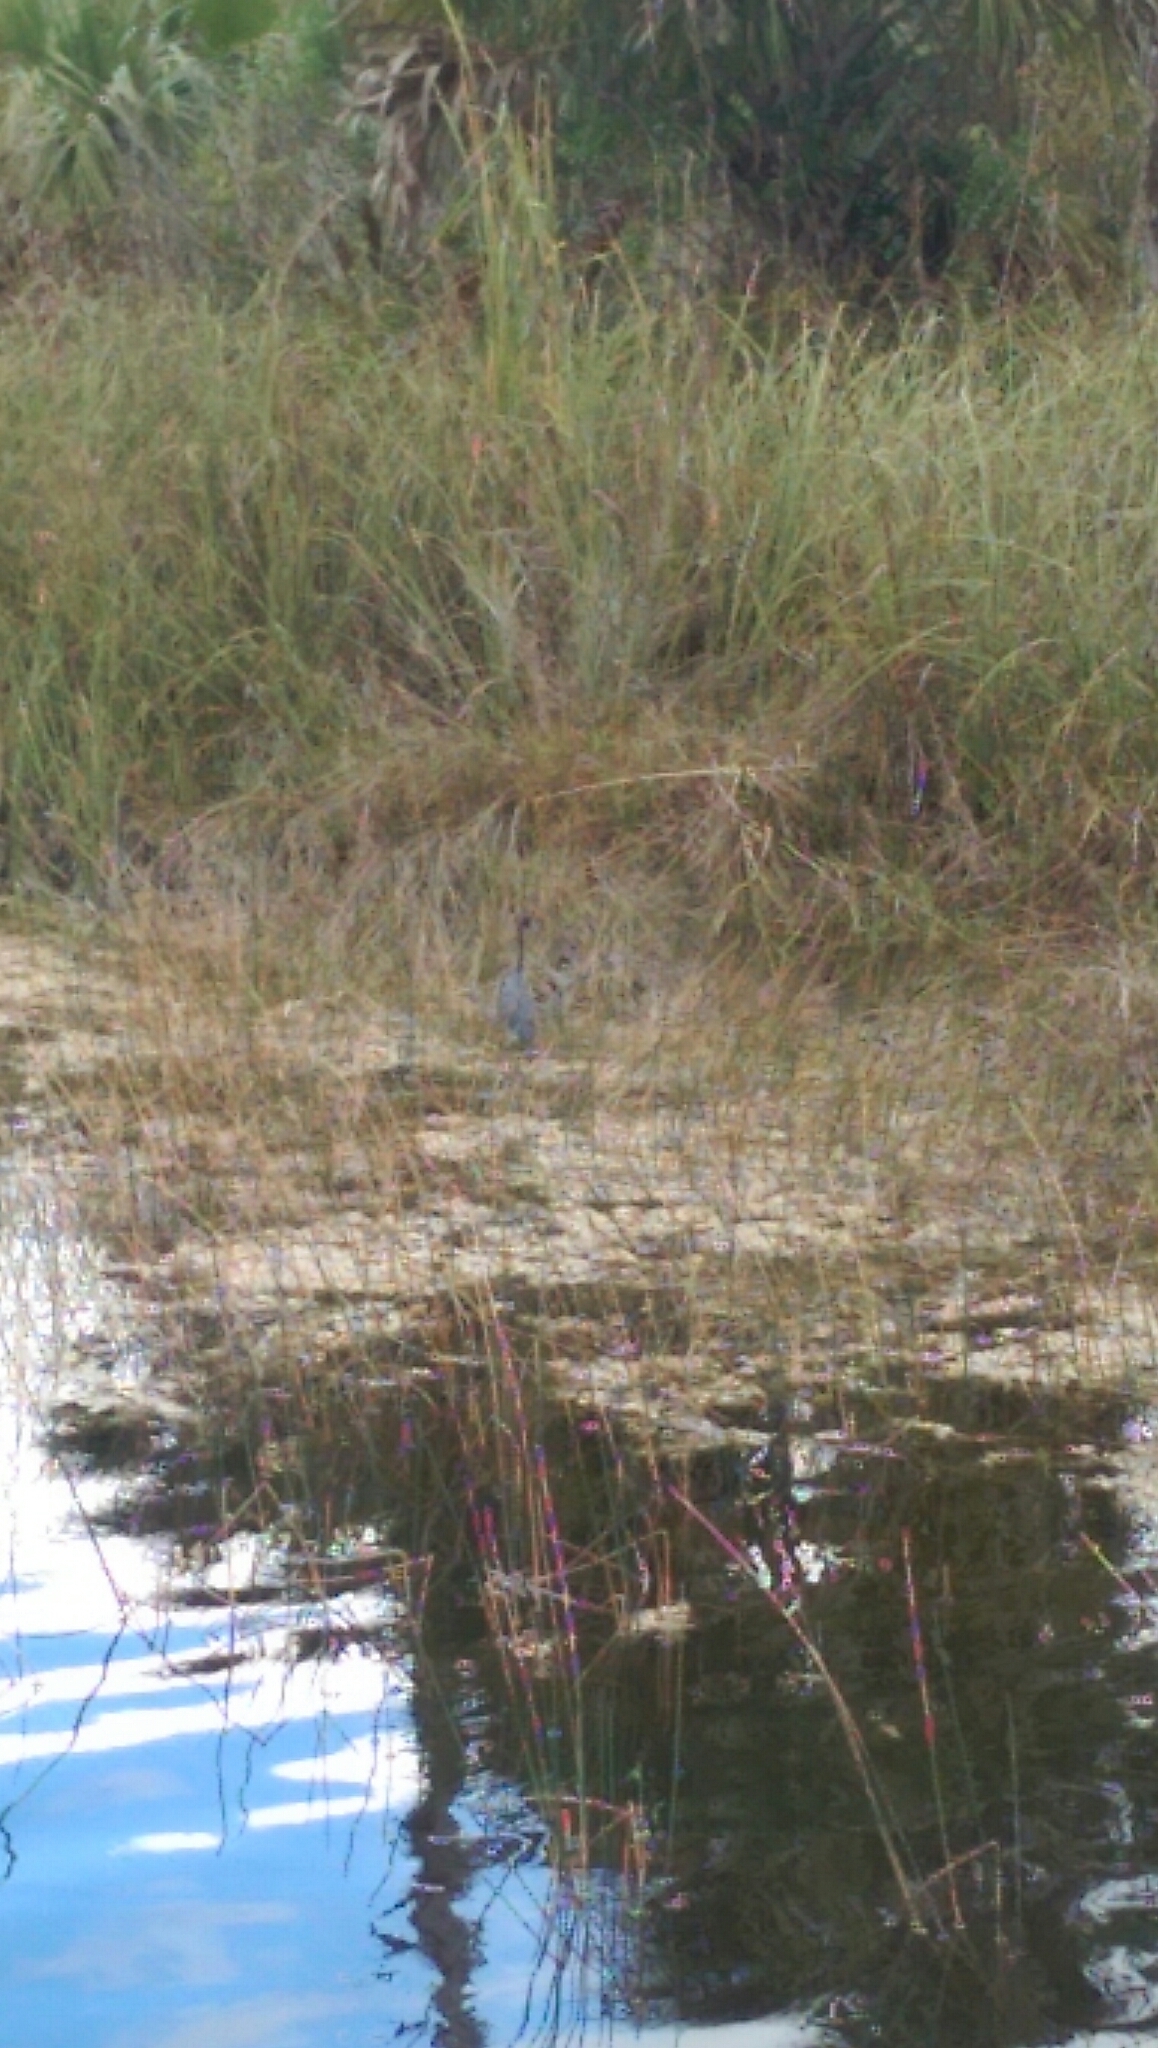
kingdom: Animalia
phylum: Chordata
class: Aves
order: Pelecaniformes
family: Ardeidae
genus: Egretta
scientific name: Egretta caerulea
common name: Little blue heron
